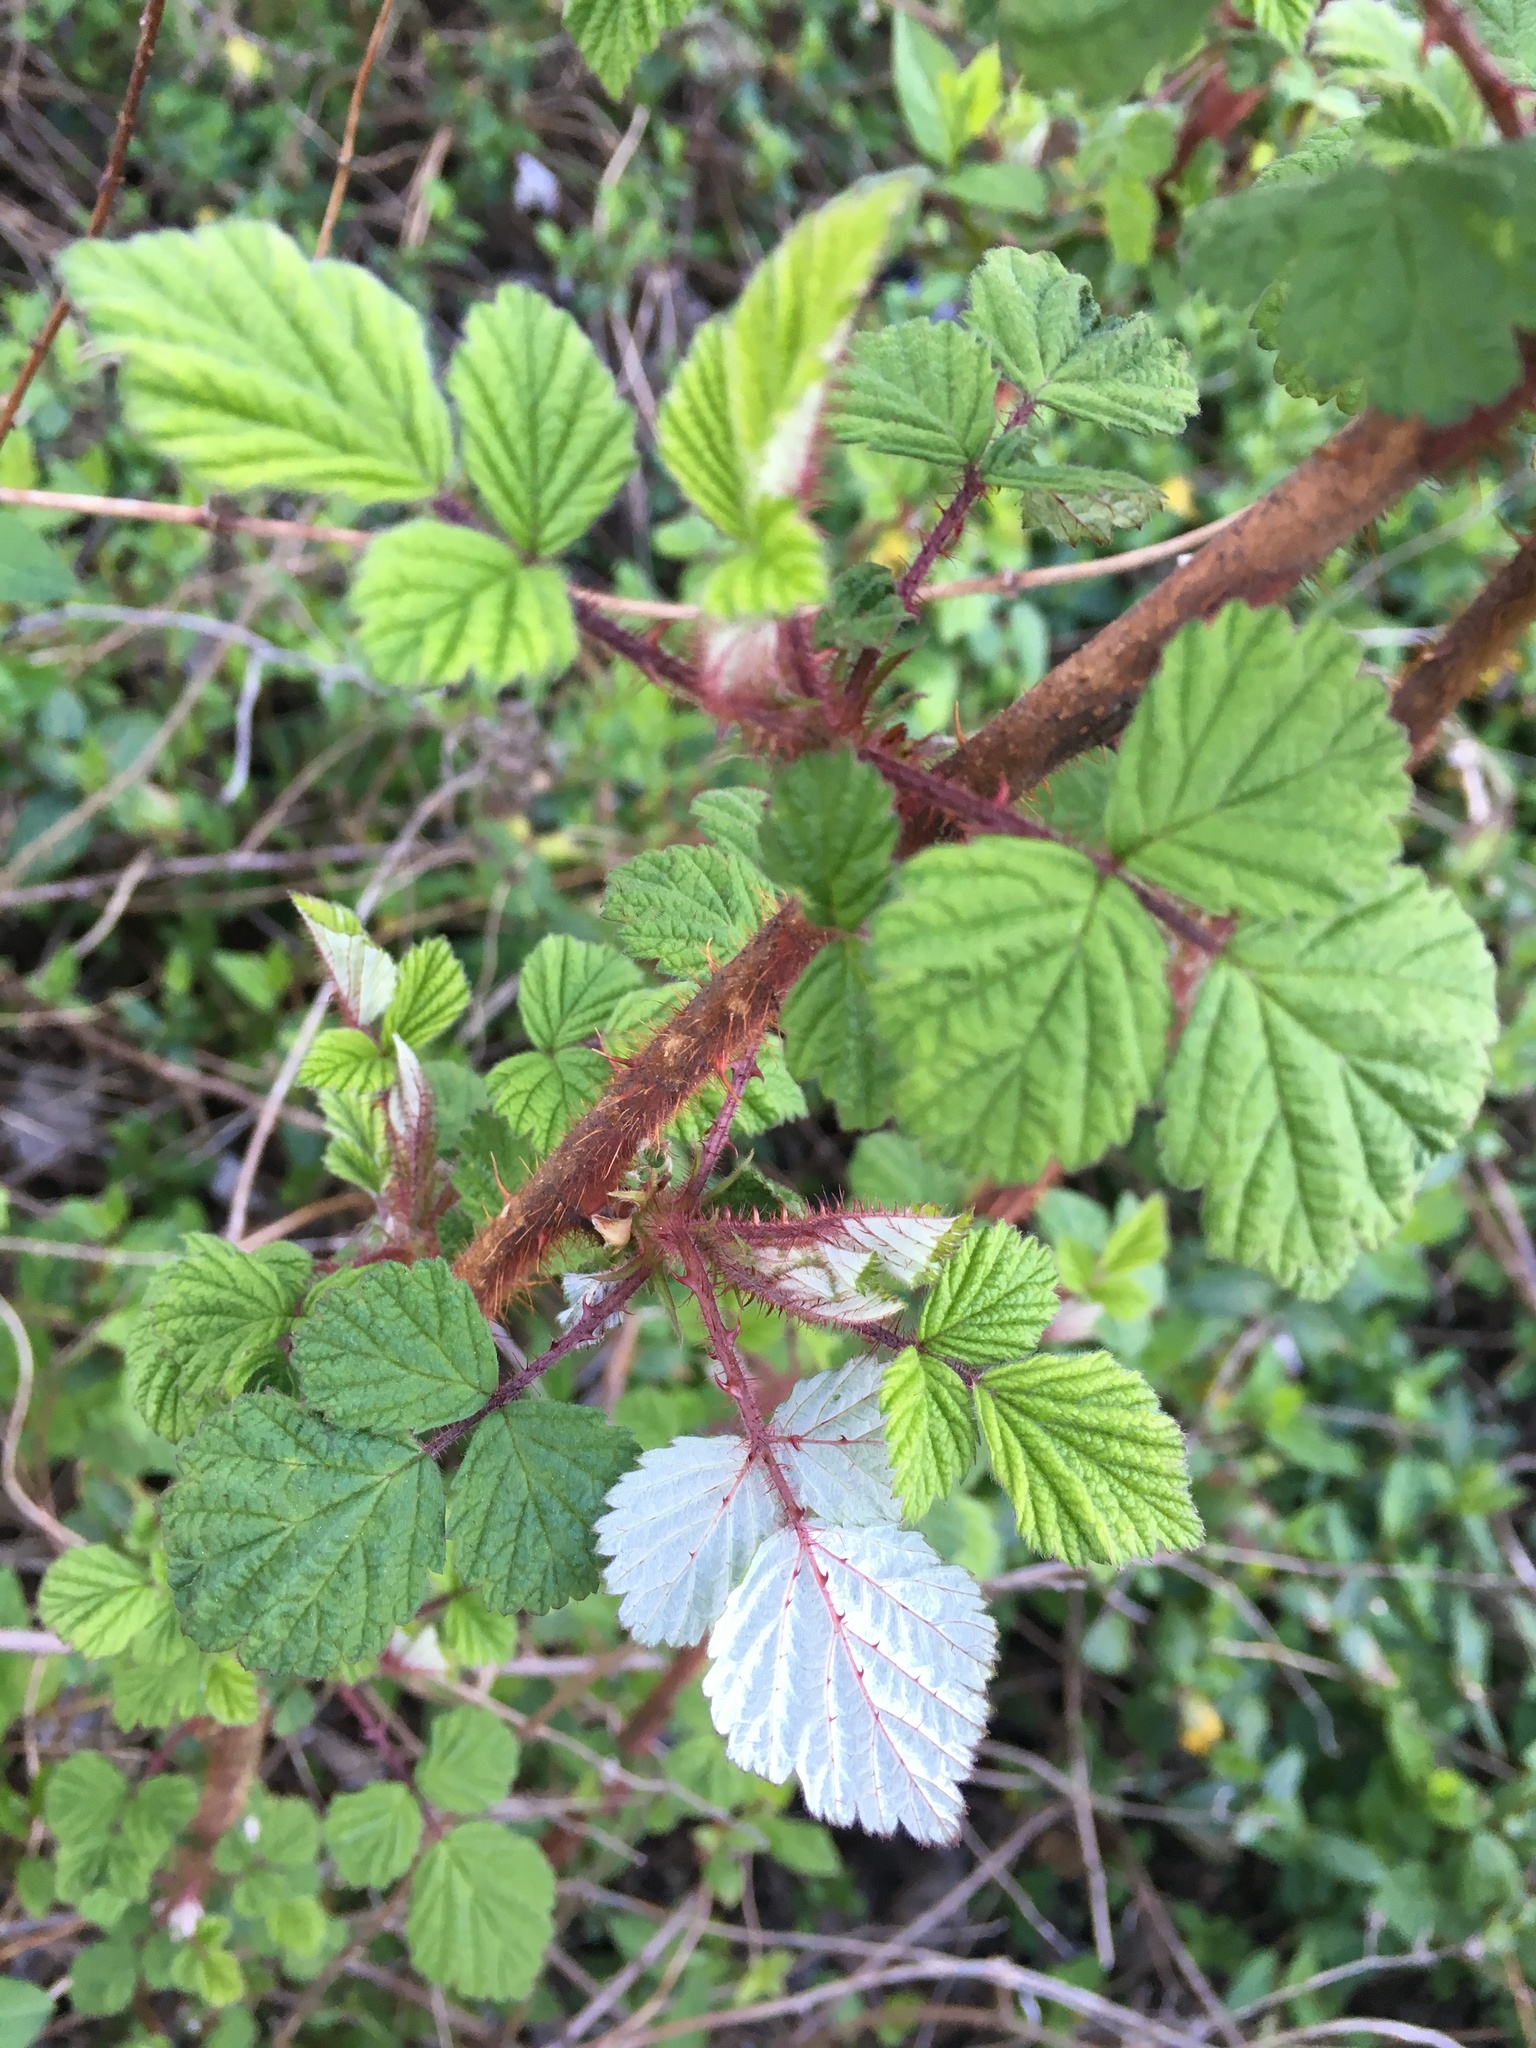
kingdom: Plantae
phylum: Tracheophyta
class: Magnoliopsida
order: Rosales
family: Rosaceae
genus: Rubus
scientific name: Rubus phoenicolasius
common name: Japanese wineberry
